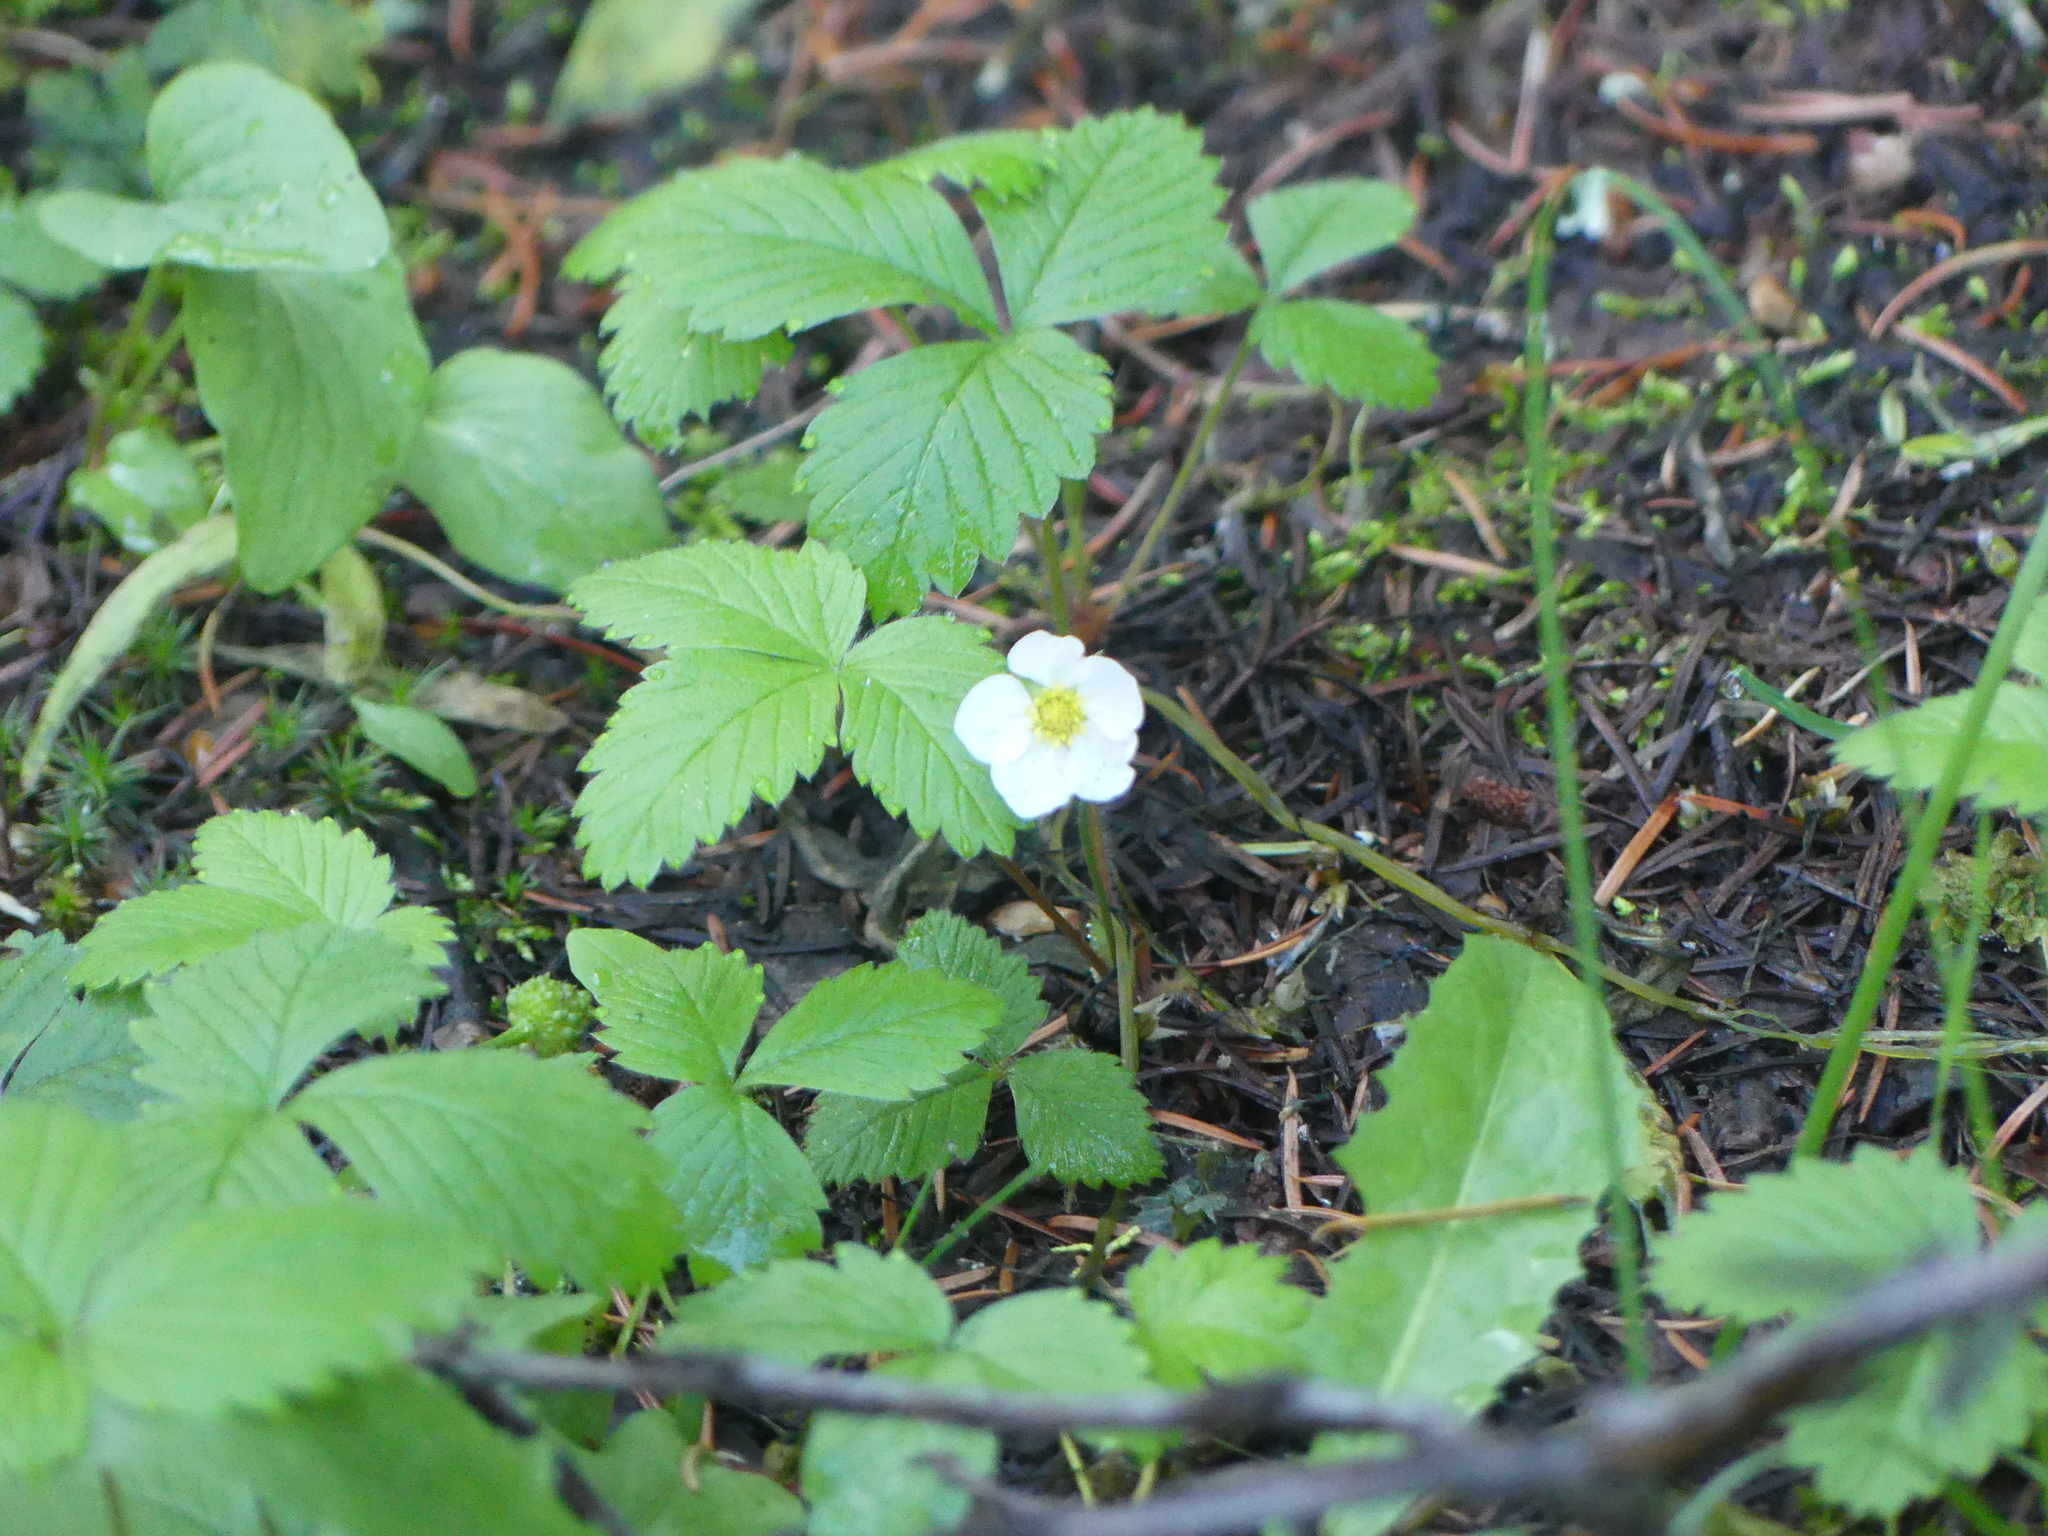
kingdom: Plantae
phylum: Tracheophyta
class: Magnoliopsida
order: Rosales
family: Rosaceae
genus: Fragaria
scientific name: Fragaria vesca
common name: Wild strawberry
